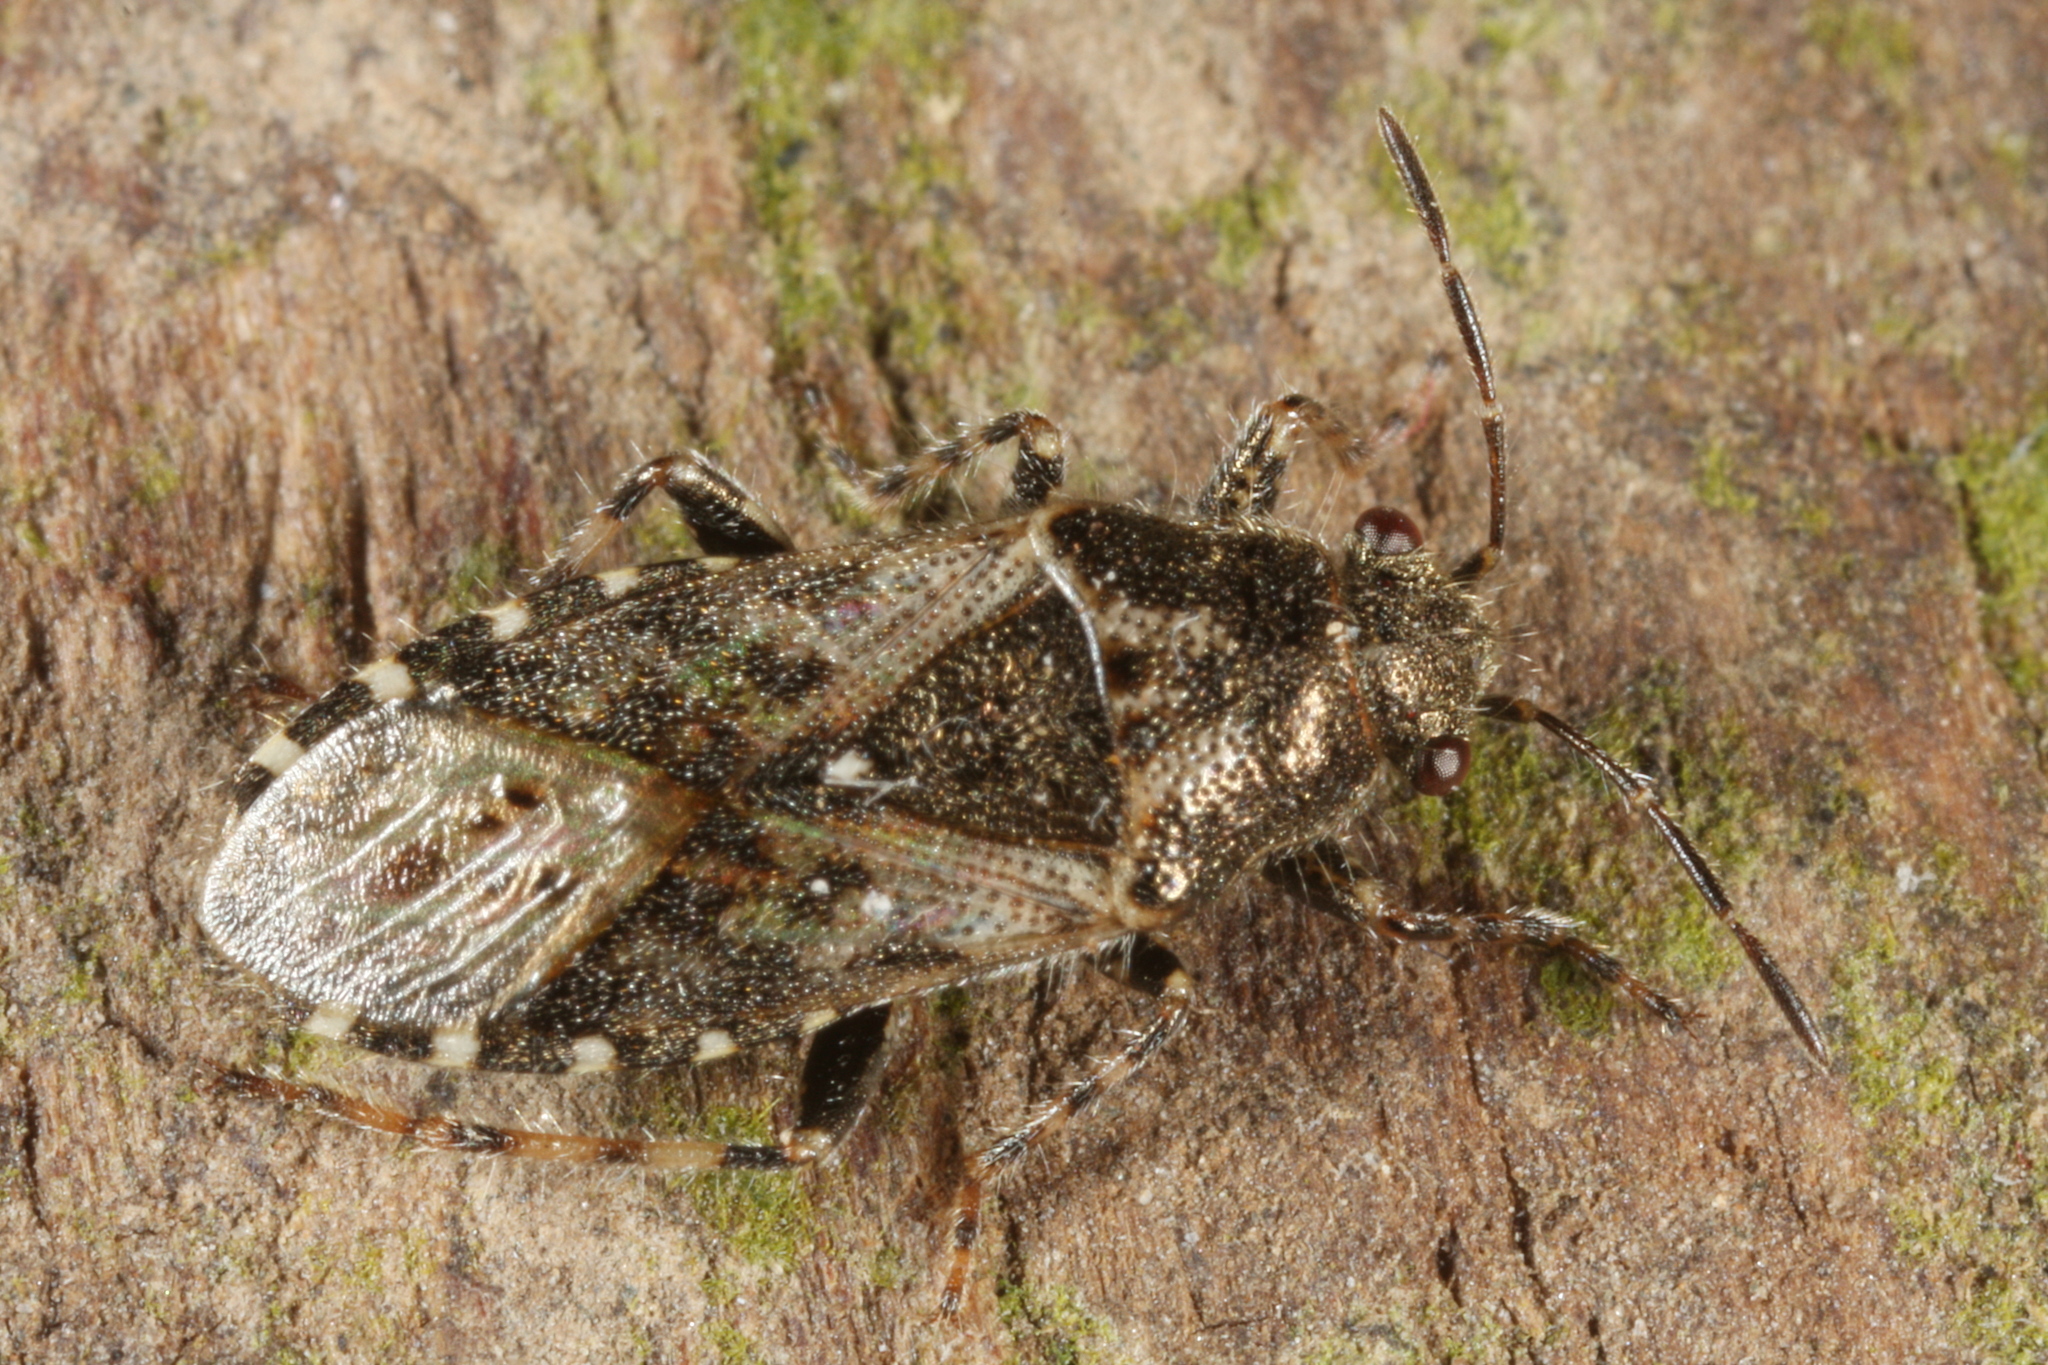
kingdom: Animalia
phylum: Arthropoda
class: Insecta
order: Hemiptera
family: Heterogastridae
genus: Heterogaster
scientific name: Heterogaster urticae
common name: Seed bug
